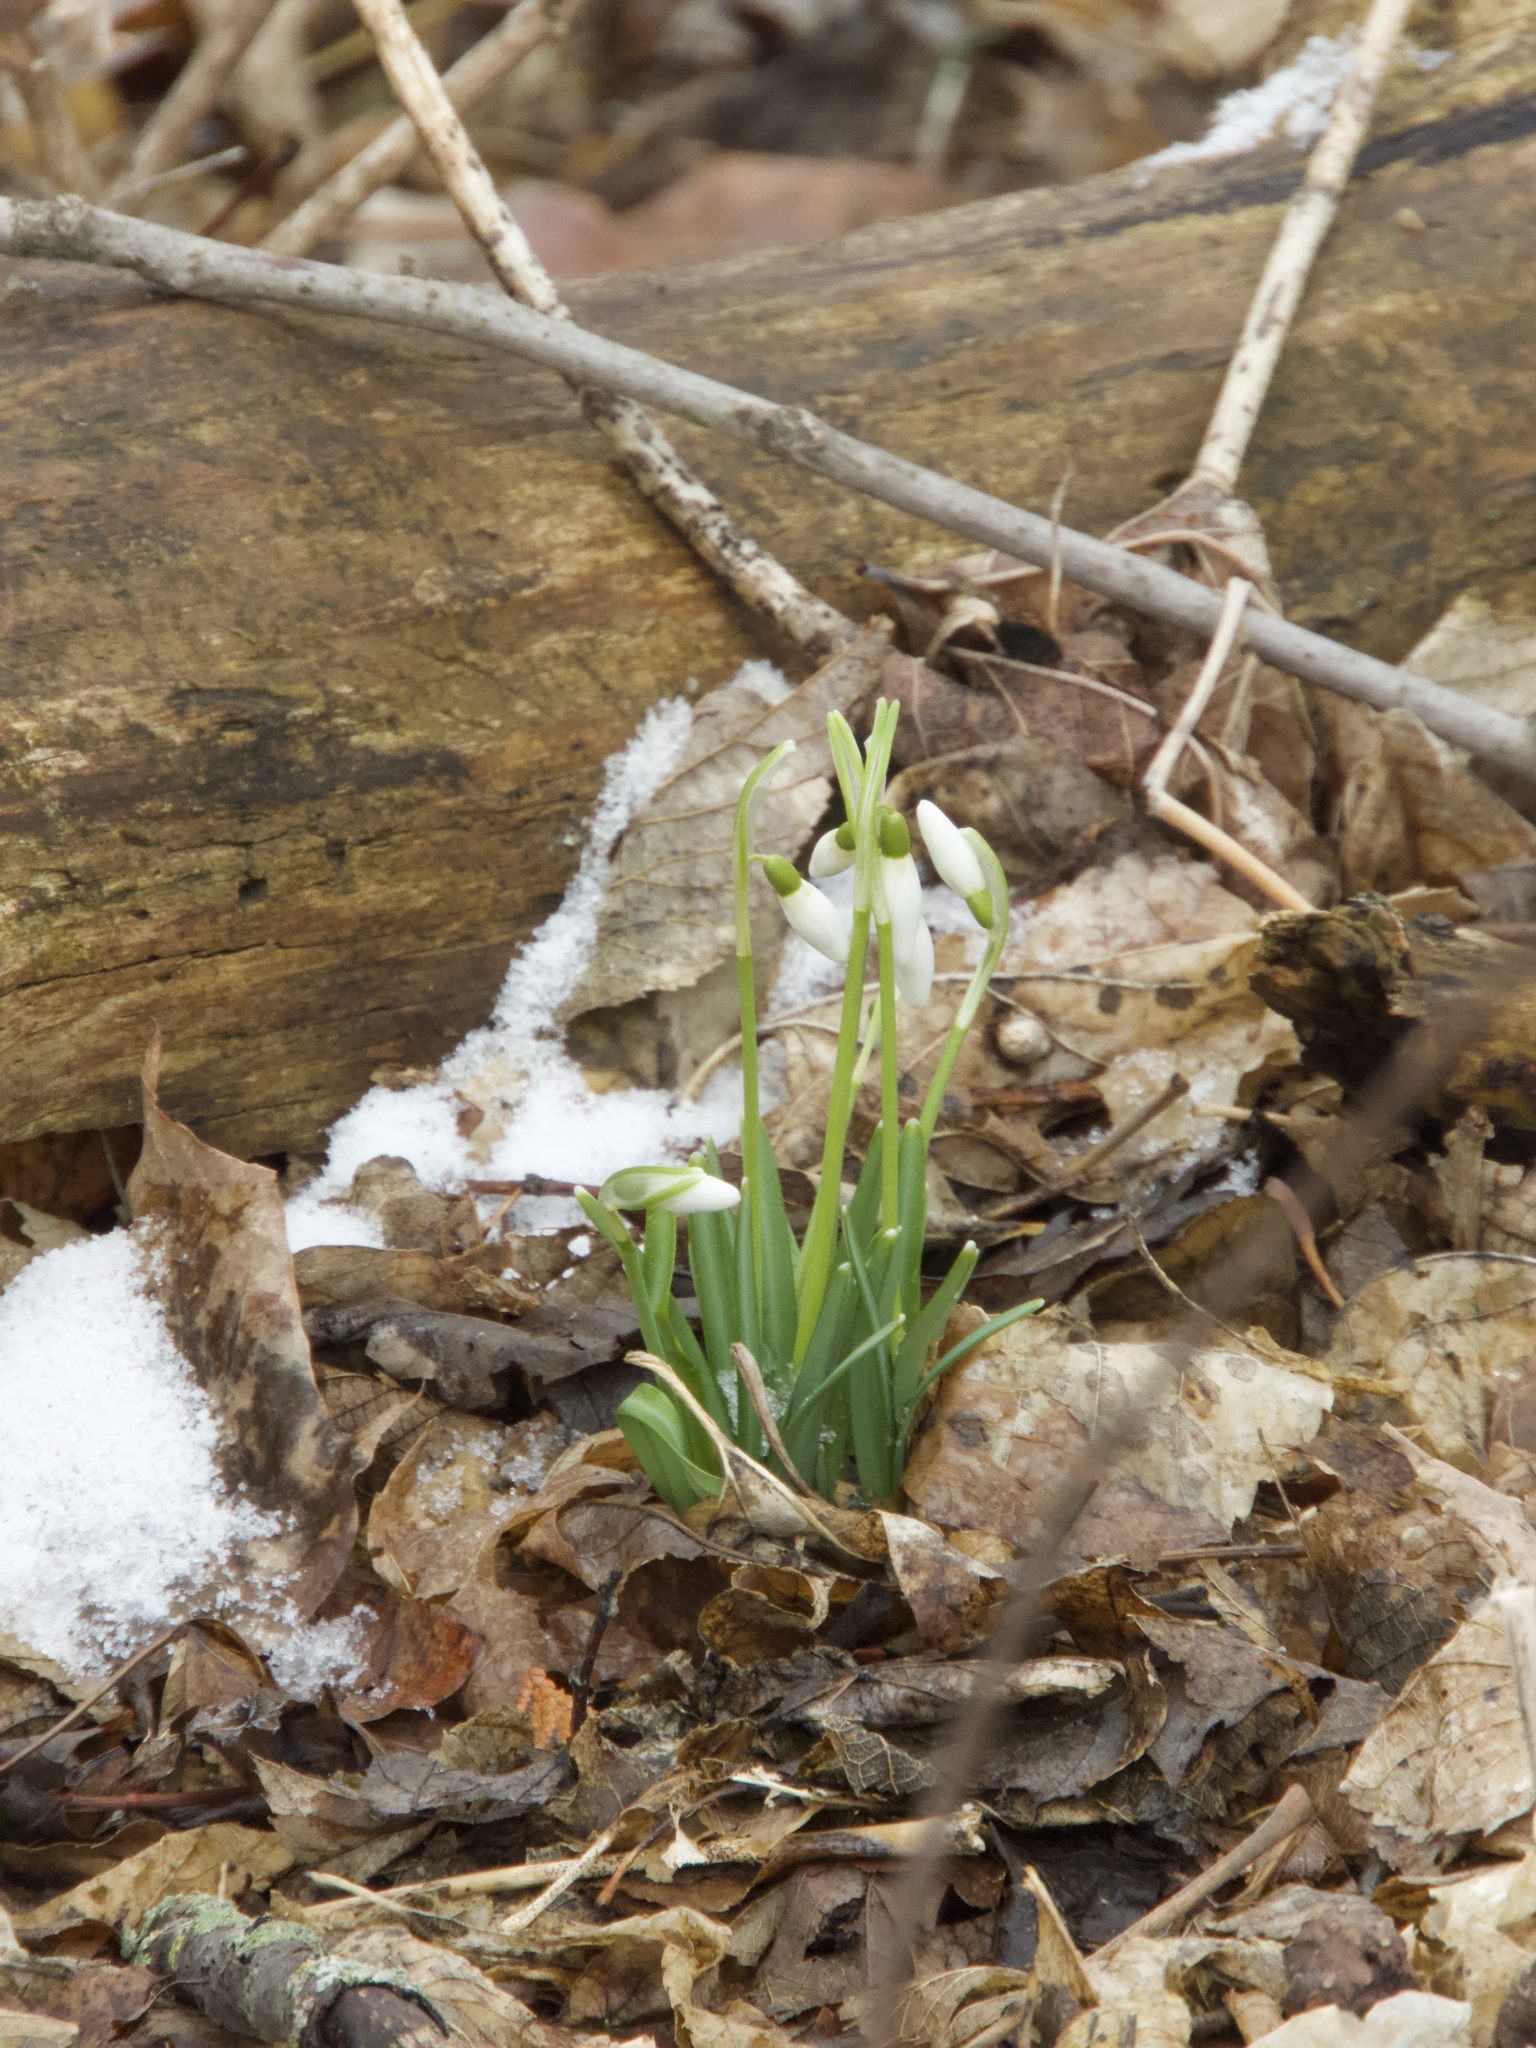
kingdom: Plantae
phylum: Tracheophyta
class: Liliopsida
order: Asparagales
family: Amaryllidaceae
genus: Galanthus
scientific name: Galanthus nivalis
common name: Snowdrop
